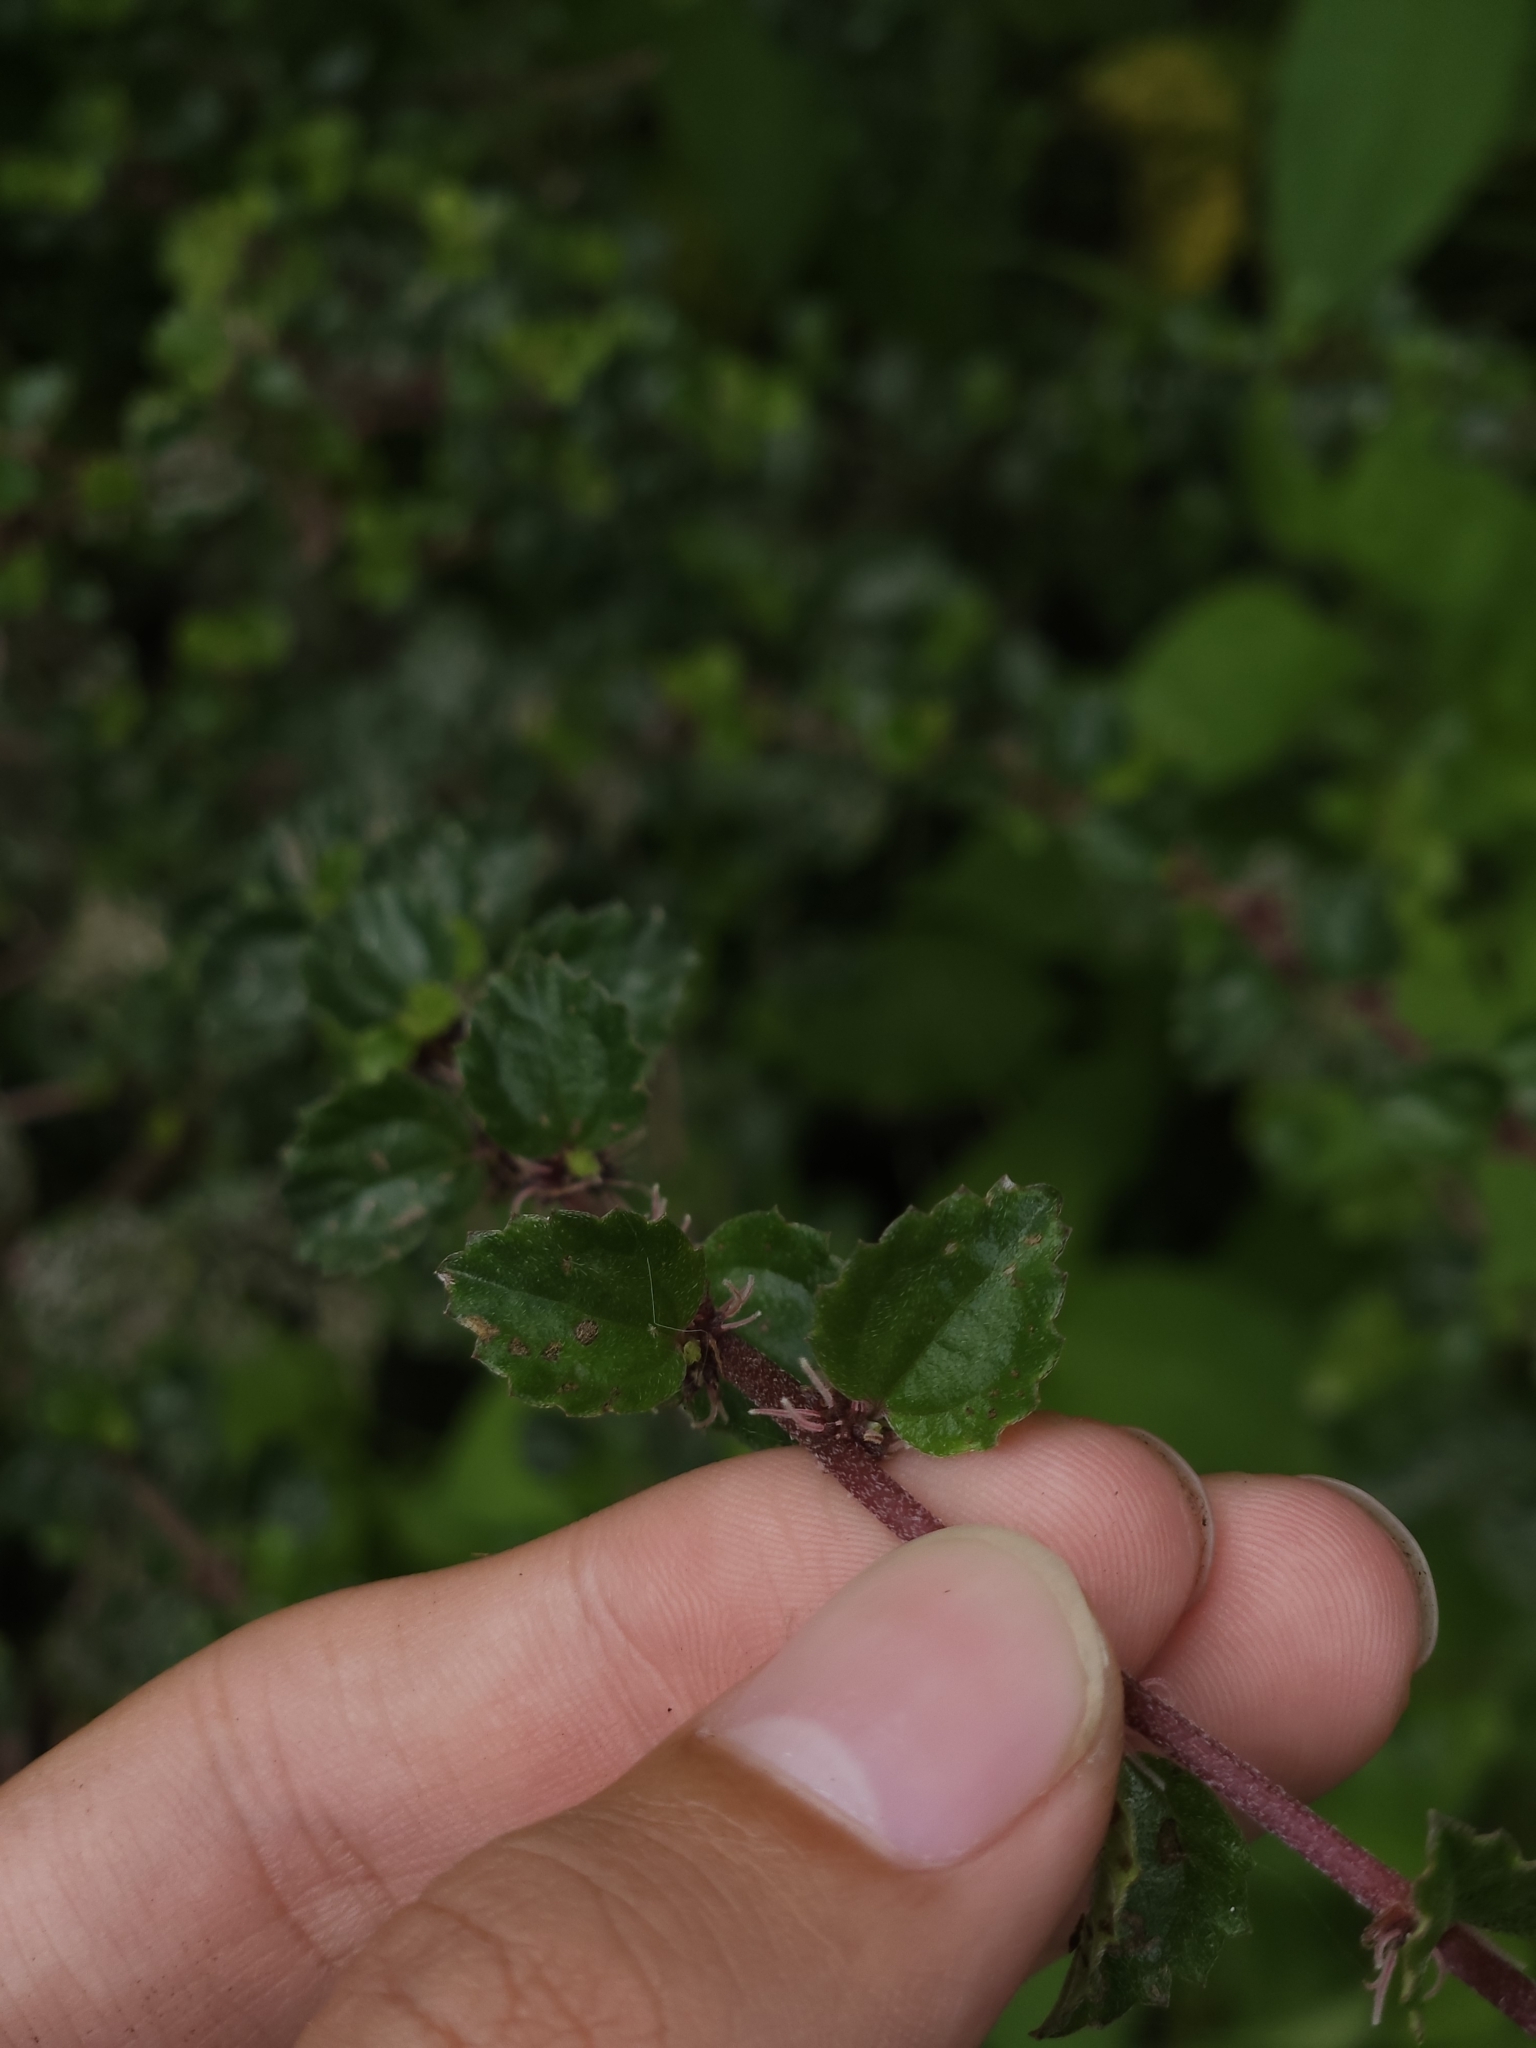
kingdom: Plantae
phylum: Tracheophyta
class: Magnoliopsida
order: Rosales
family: Urticaceae
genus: Pouzolzia
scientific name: Pouzolzia sanguinea
